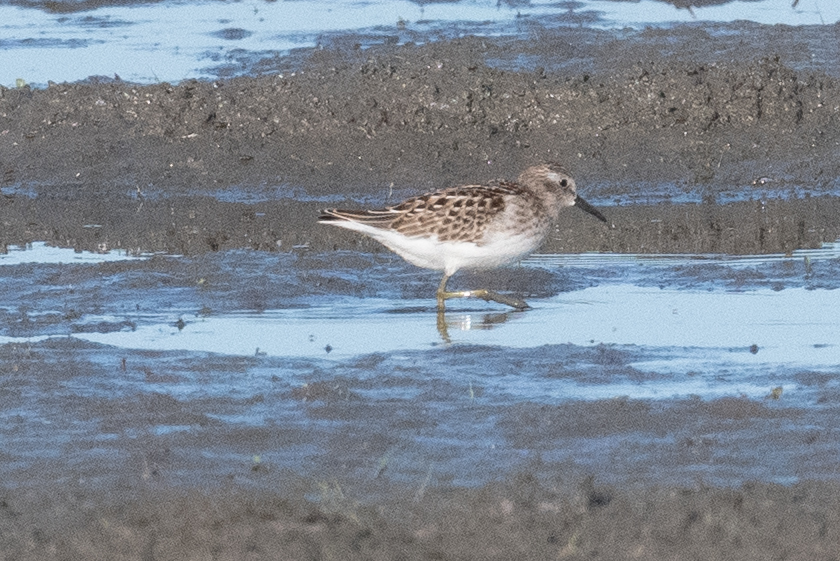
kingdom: Animalia
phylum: Chordata
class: Aves
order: Charadriiformes
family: Scolopacidae
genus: Calidris
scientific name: Calidris minutilla
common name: Least sandpiper
